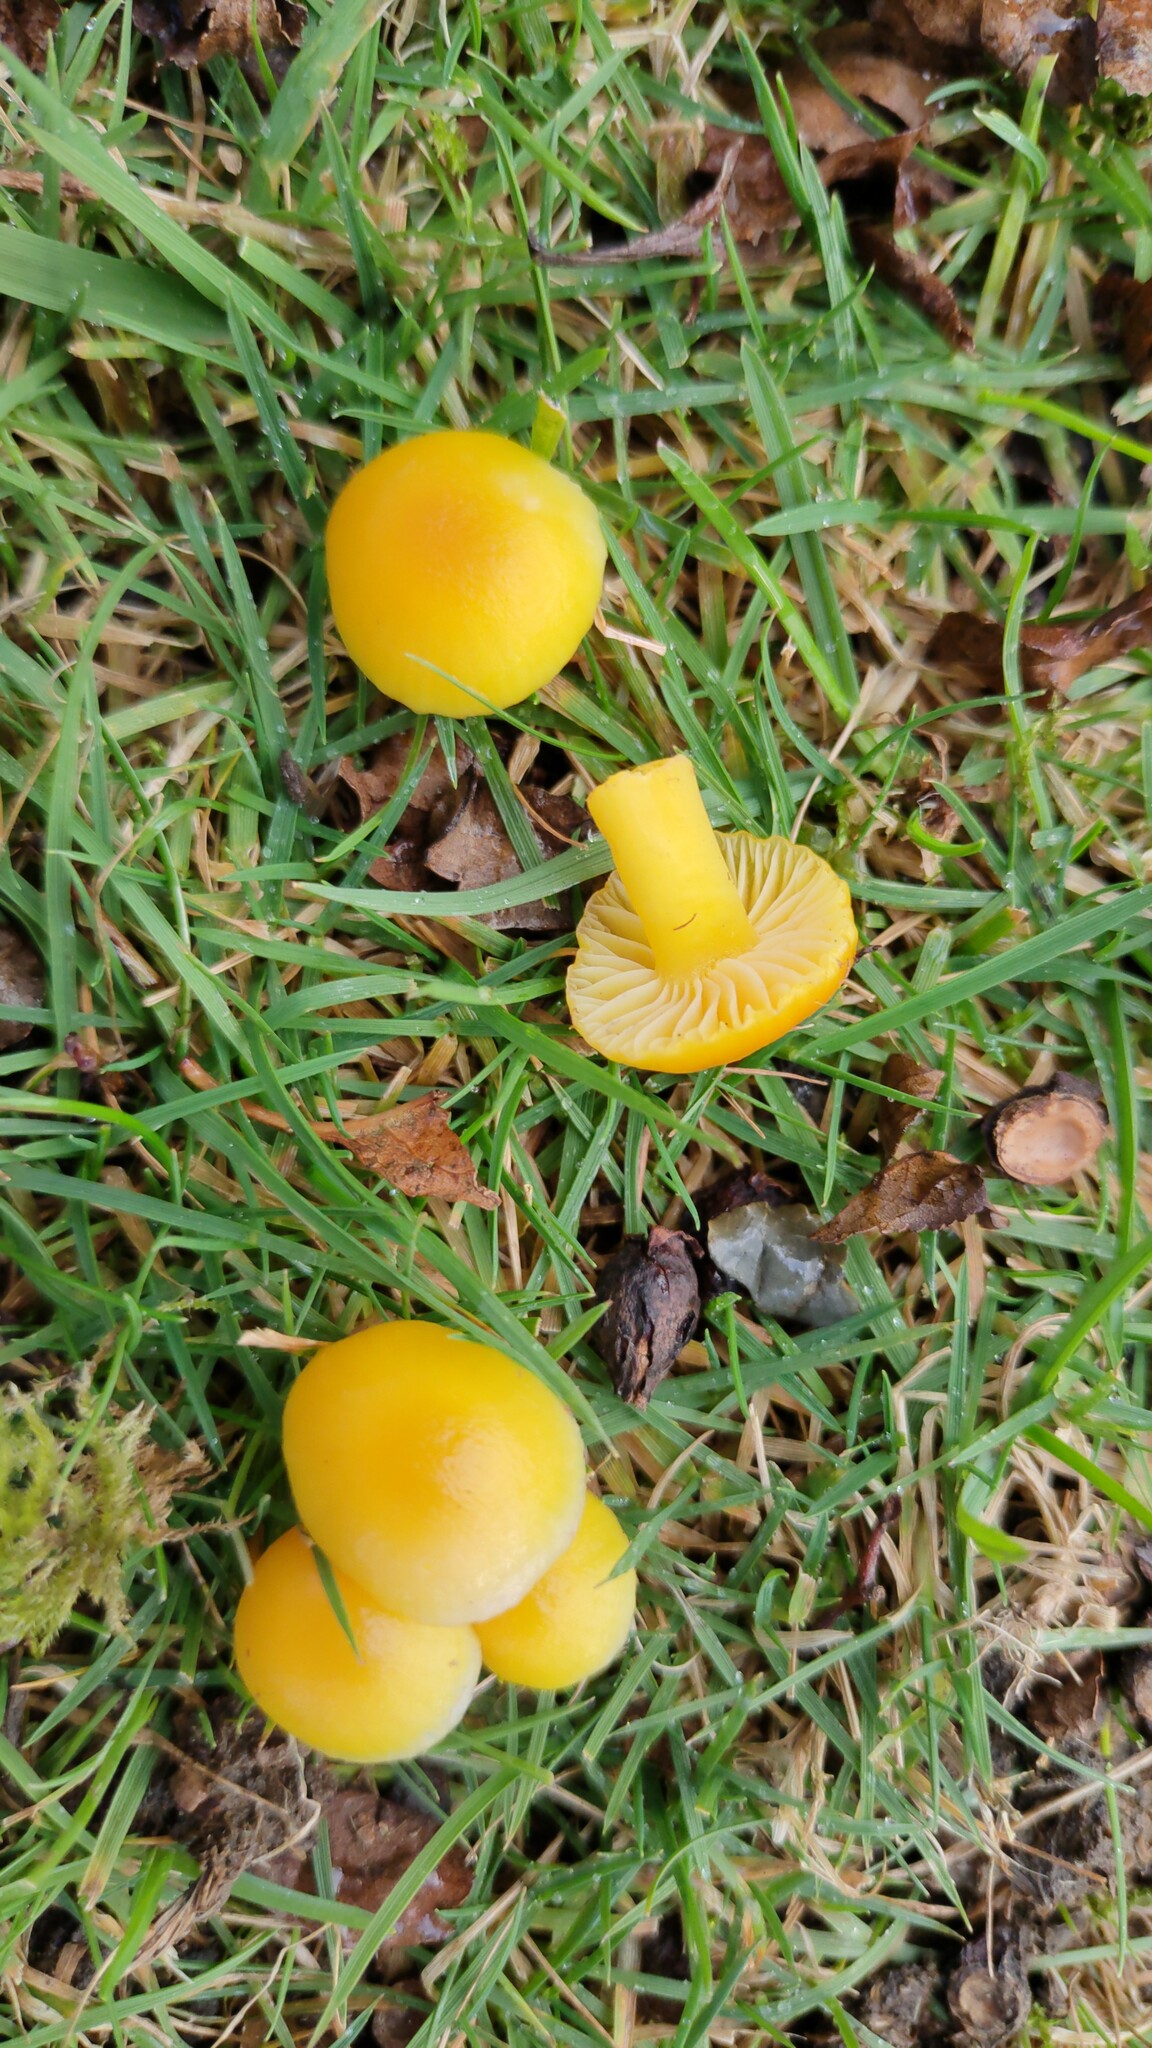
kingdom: Fungi
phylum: Basidiomycota
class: Agaricomycetes
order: Agaricales
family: Hygrophoraceae
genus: Hygrocybe
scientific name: Hygrocybe ceracea
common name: Butter waxcap
